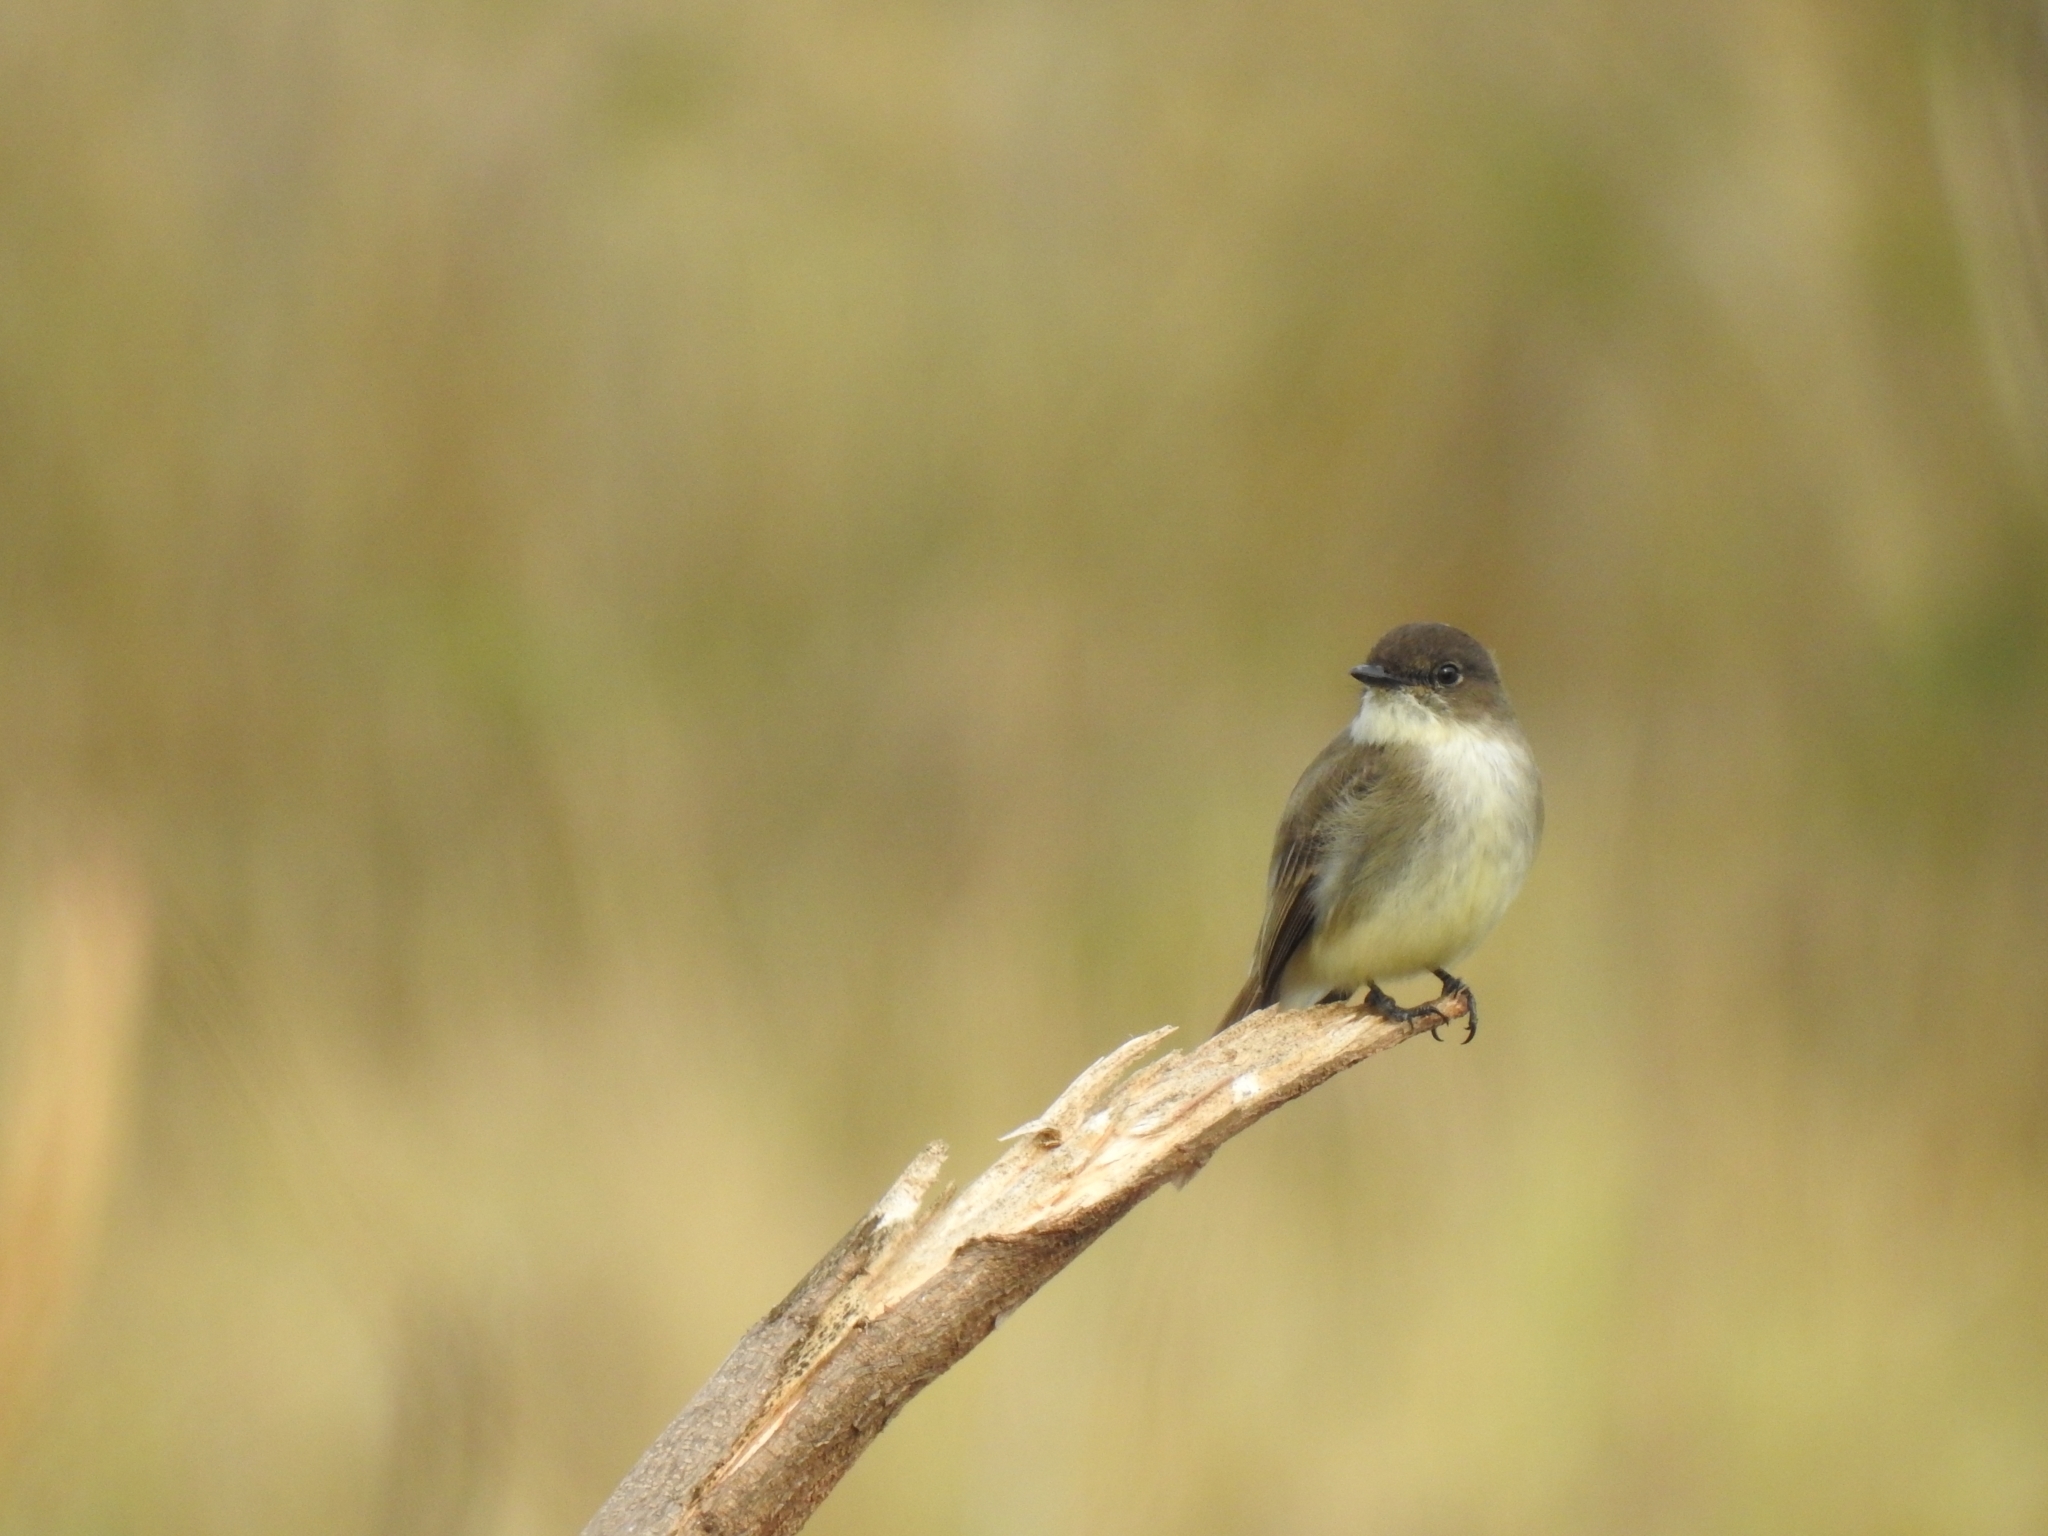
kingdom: Animalia
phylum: Chordata
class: Aves
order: Passeriformes
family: Tyrannidae
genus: Sayornis
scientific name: Sayornis phoebe
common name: Eastern phoebe
